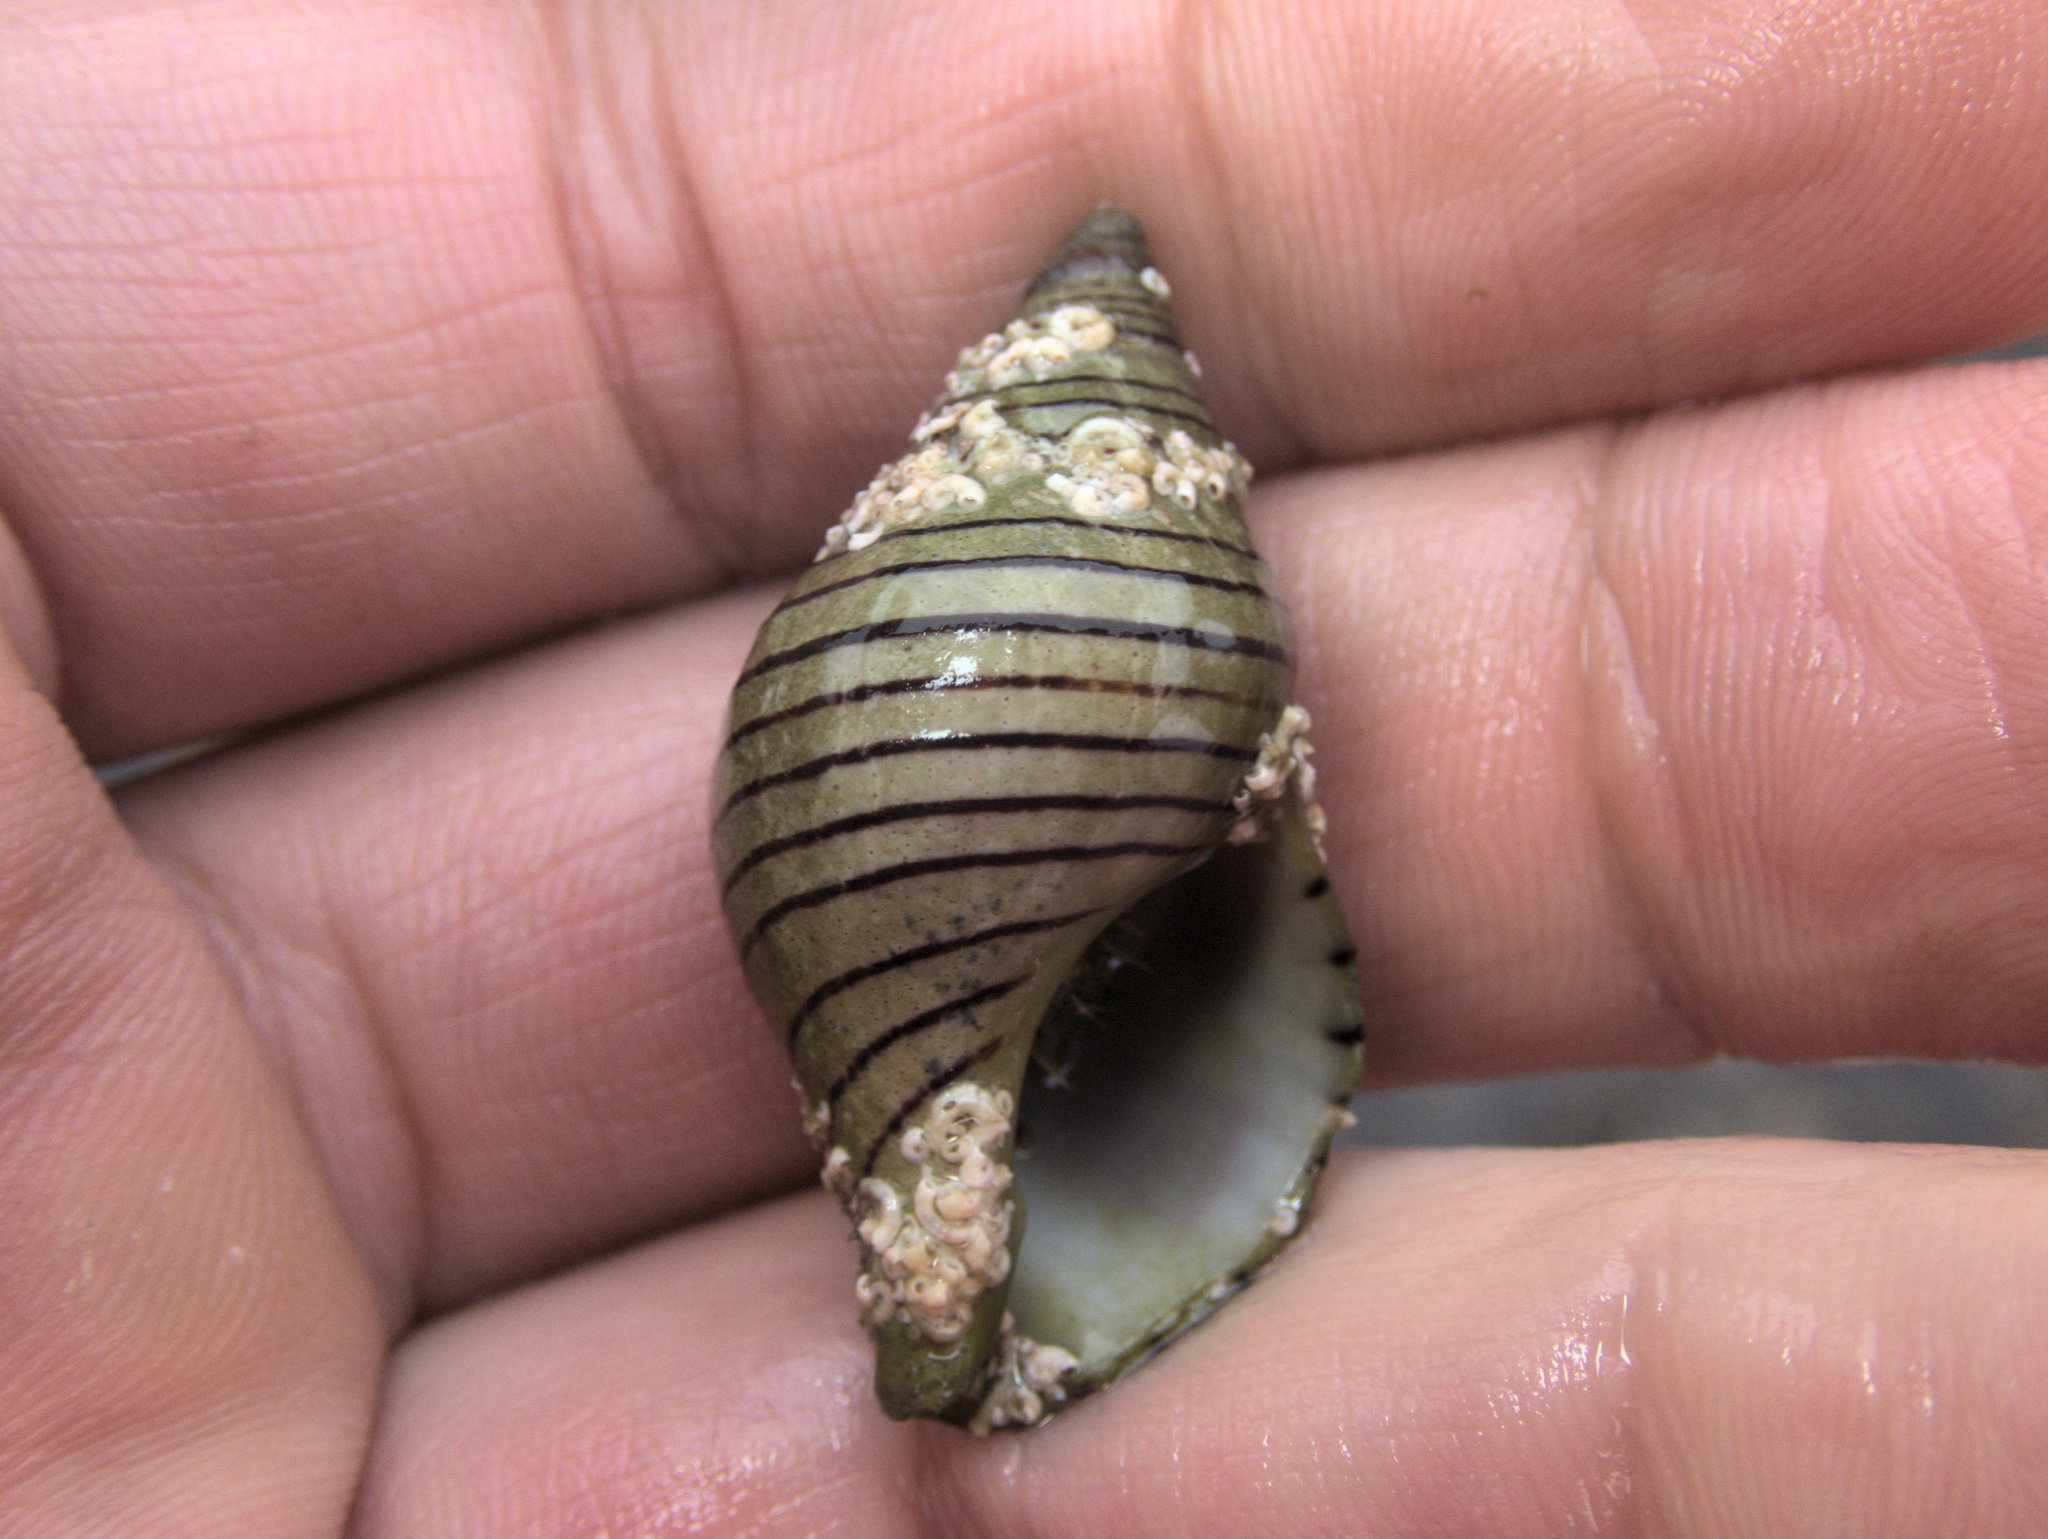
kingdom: Animalia
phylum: Mollusca
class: Gastropoda
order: Neogastropoda
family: Tudiclidae
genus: Buccinulum
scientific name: Buccinulum linea
